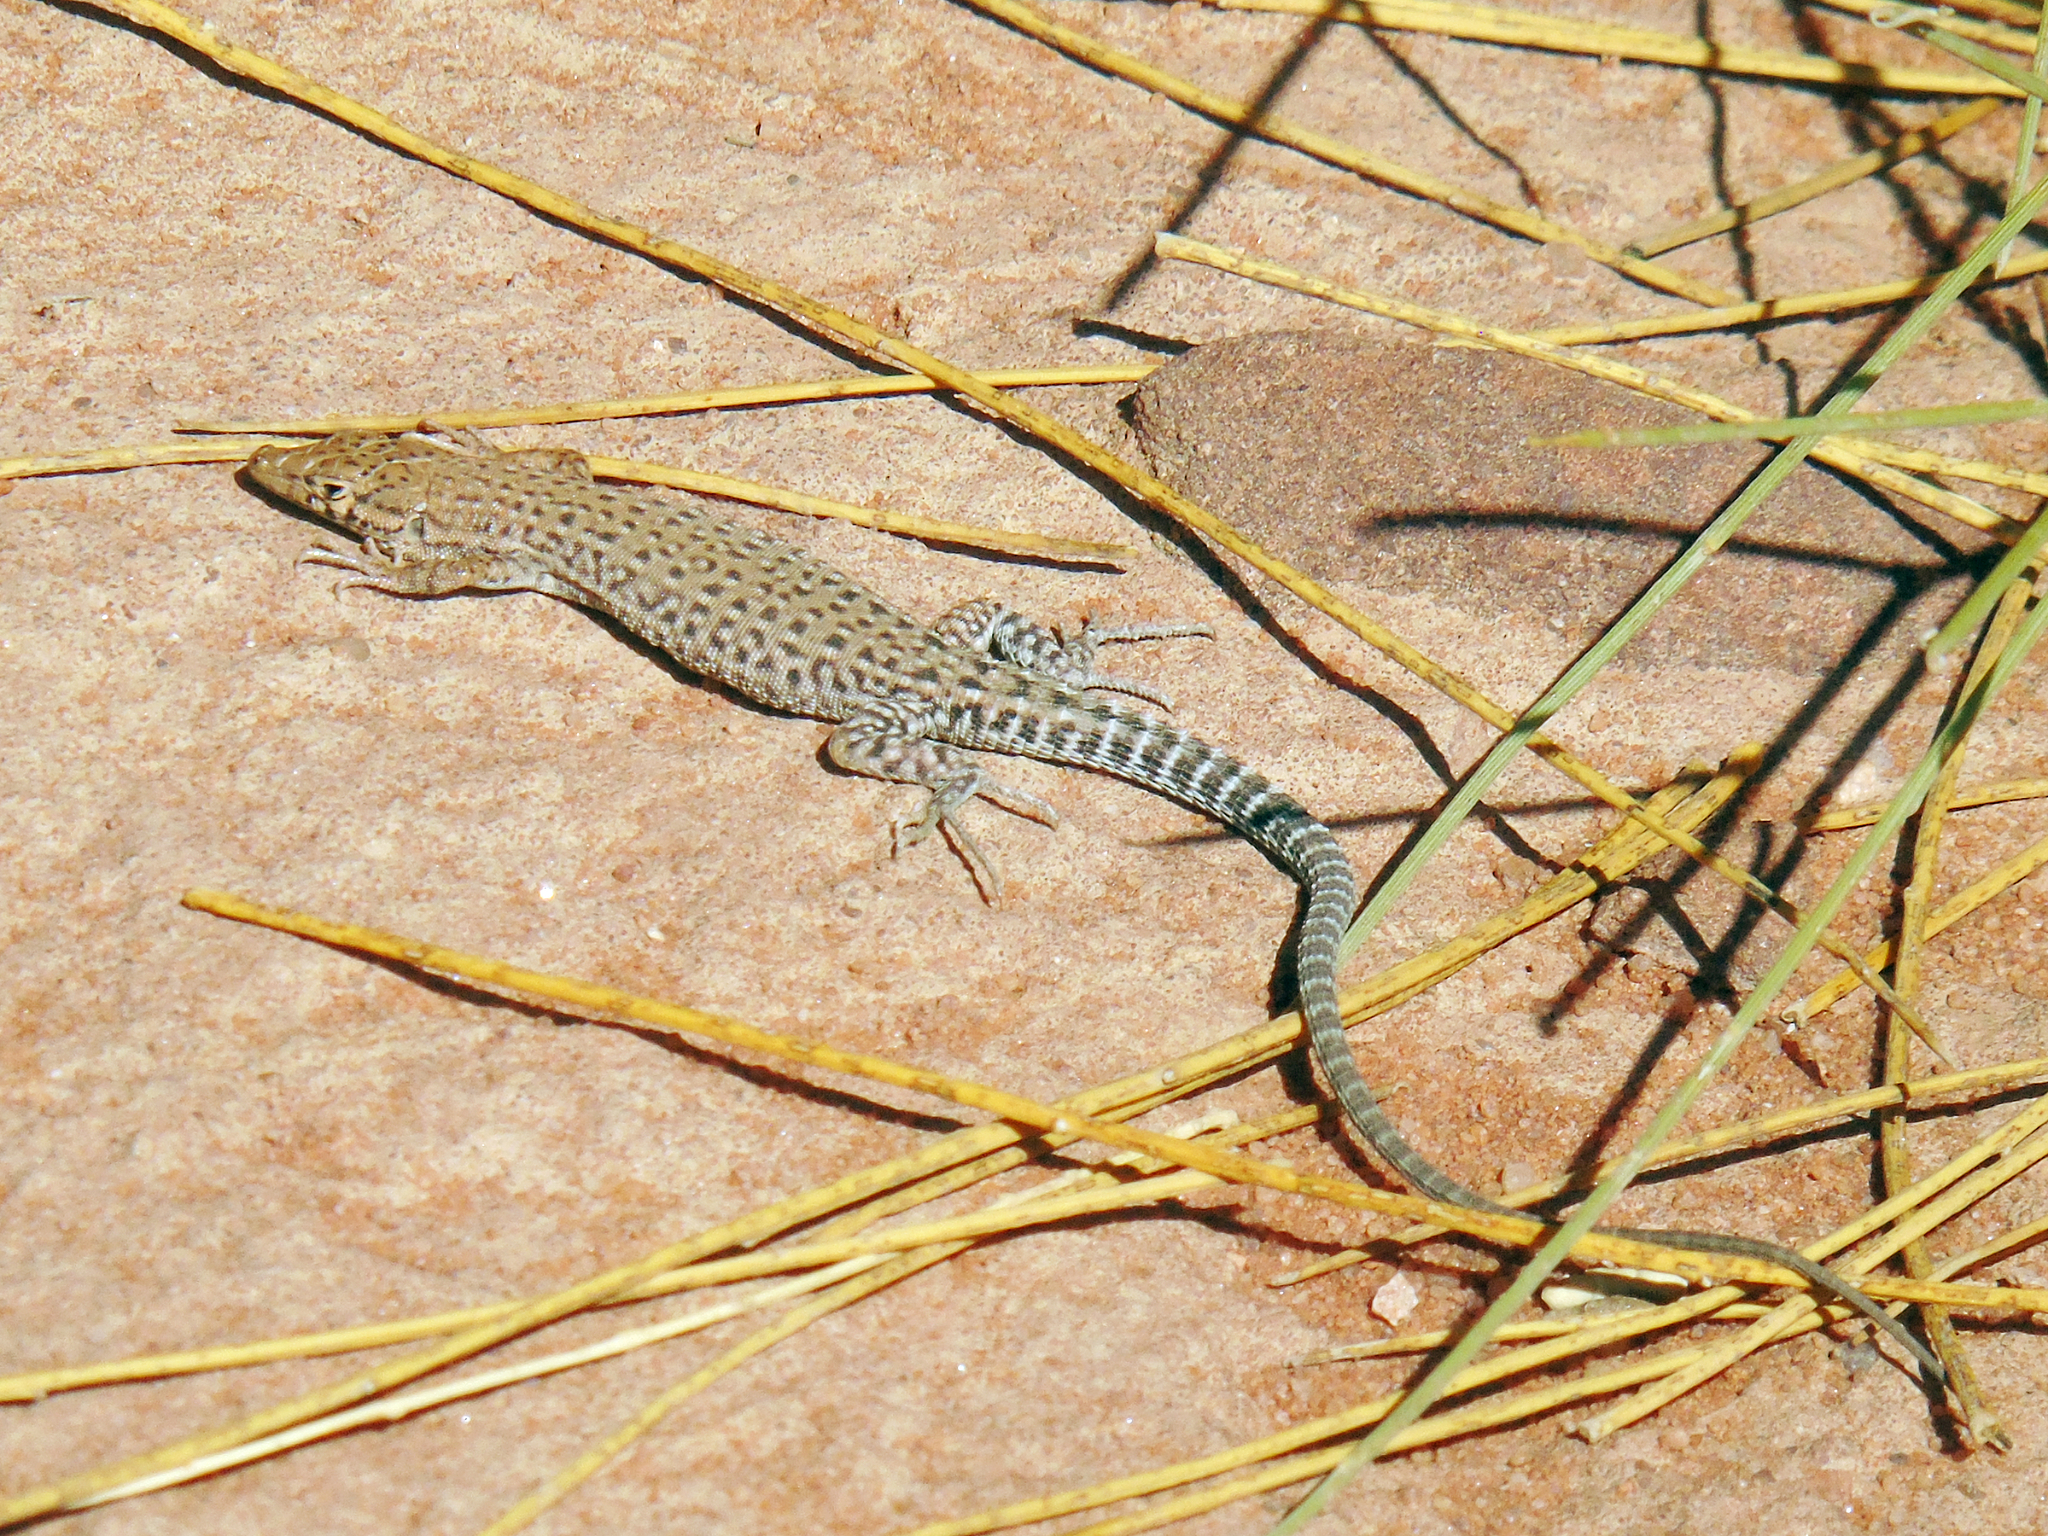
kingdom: Animalia
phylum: Chordata
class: Squamata
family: Lacertidae
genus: Mesalina
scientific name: Mesalina bahaeldini
